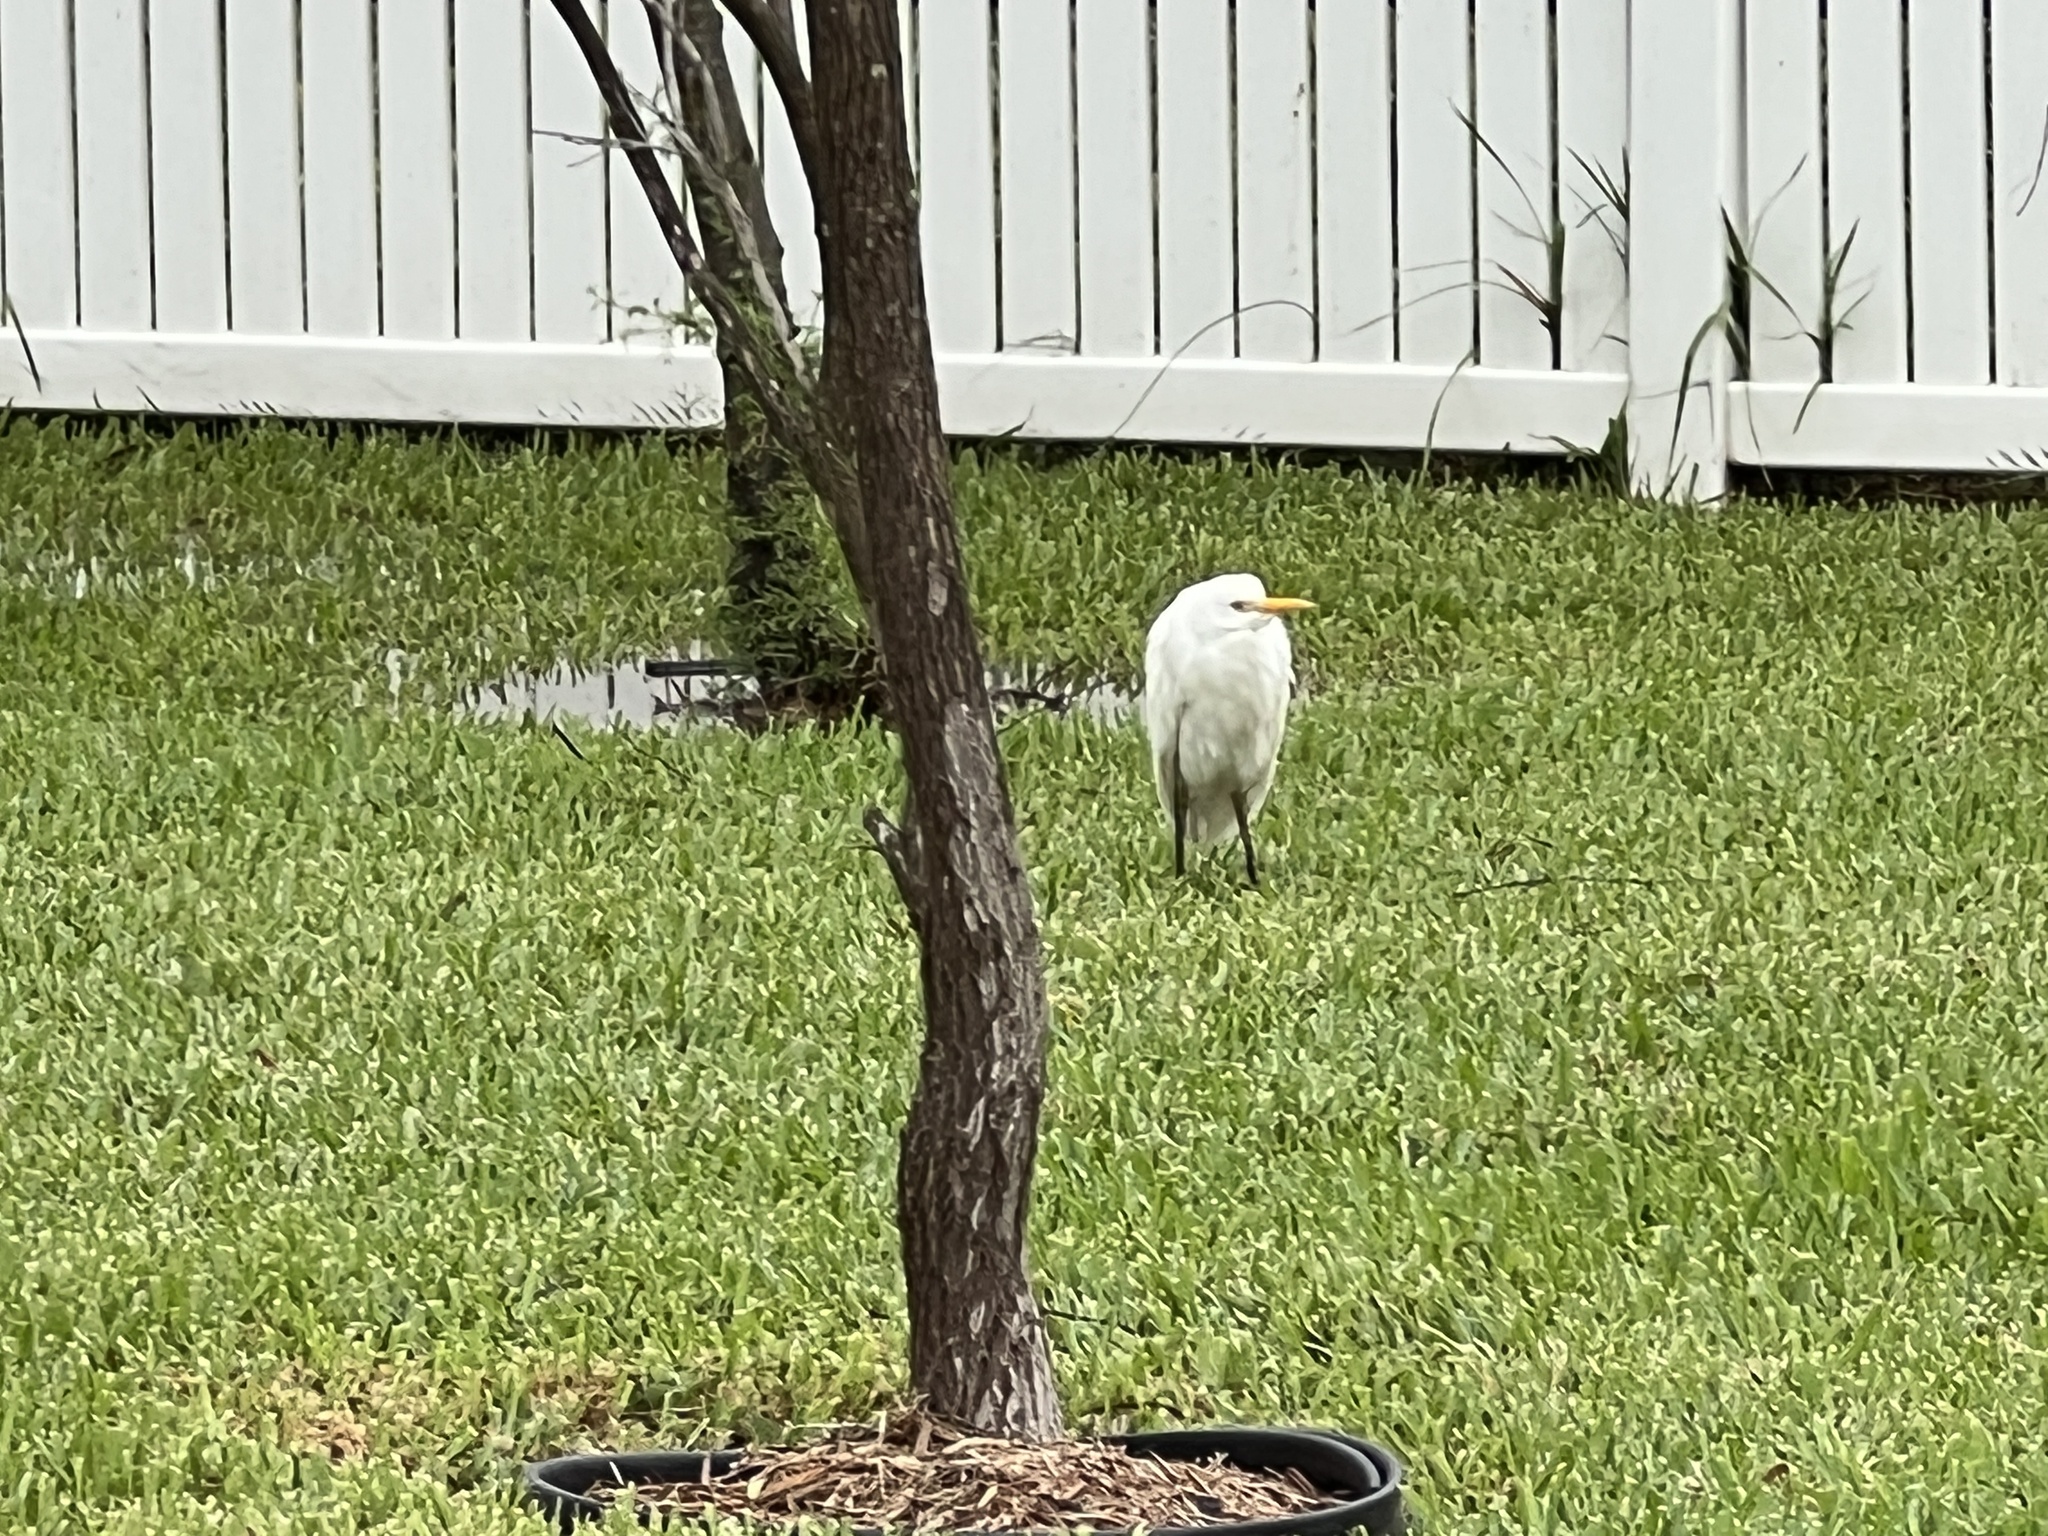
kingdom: Animalia
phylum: Chordata
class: Aves
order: Pelecaniformes
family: Ardeidae
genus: Bubulcus
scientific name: Bubulcus ibis
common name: Cattle egret
